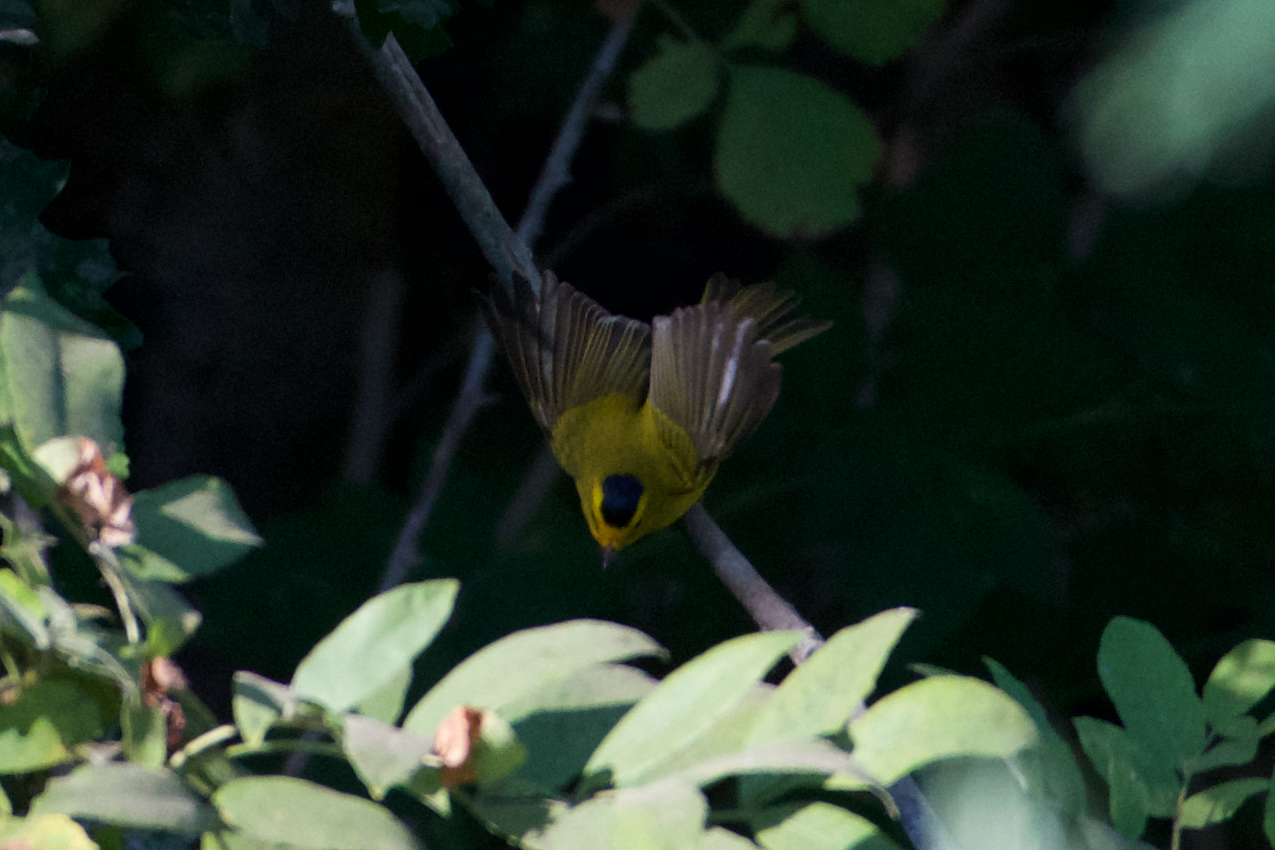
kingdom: Animalia
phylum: Chordata
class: Aves
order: Passeriformes
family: Parulidae
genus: Cardellina
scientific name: Cardellina pusilla
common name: Wilson's warbler
